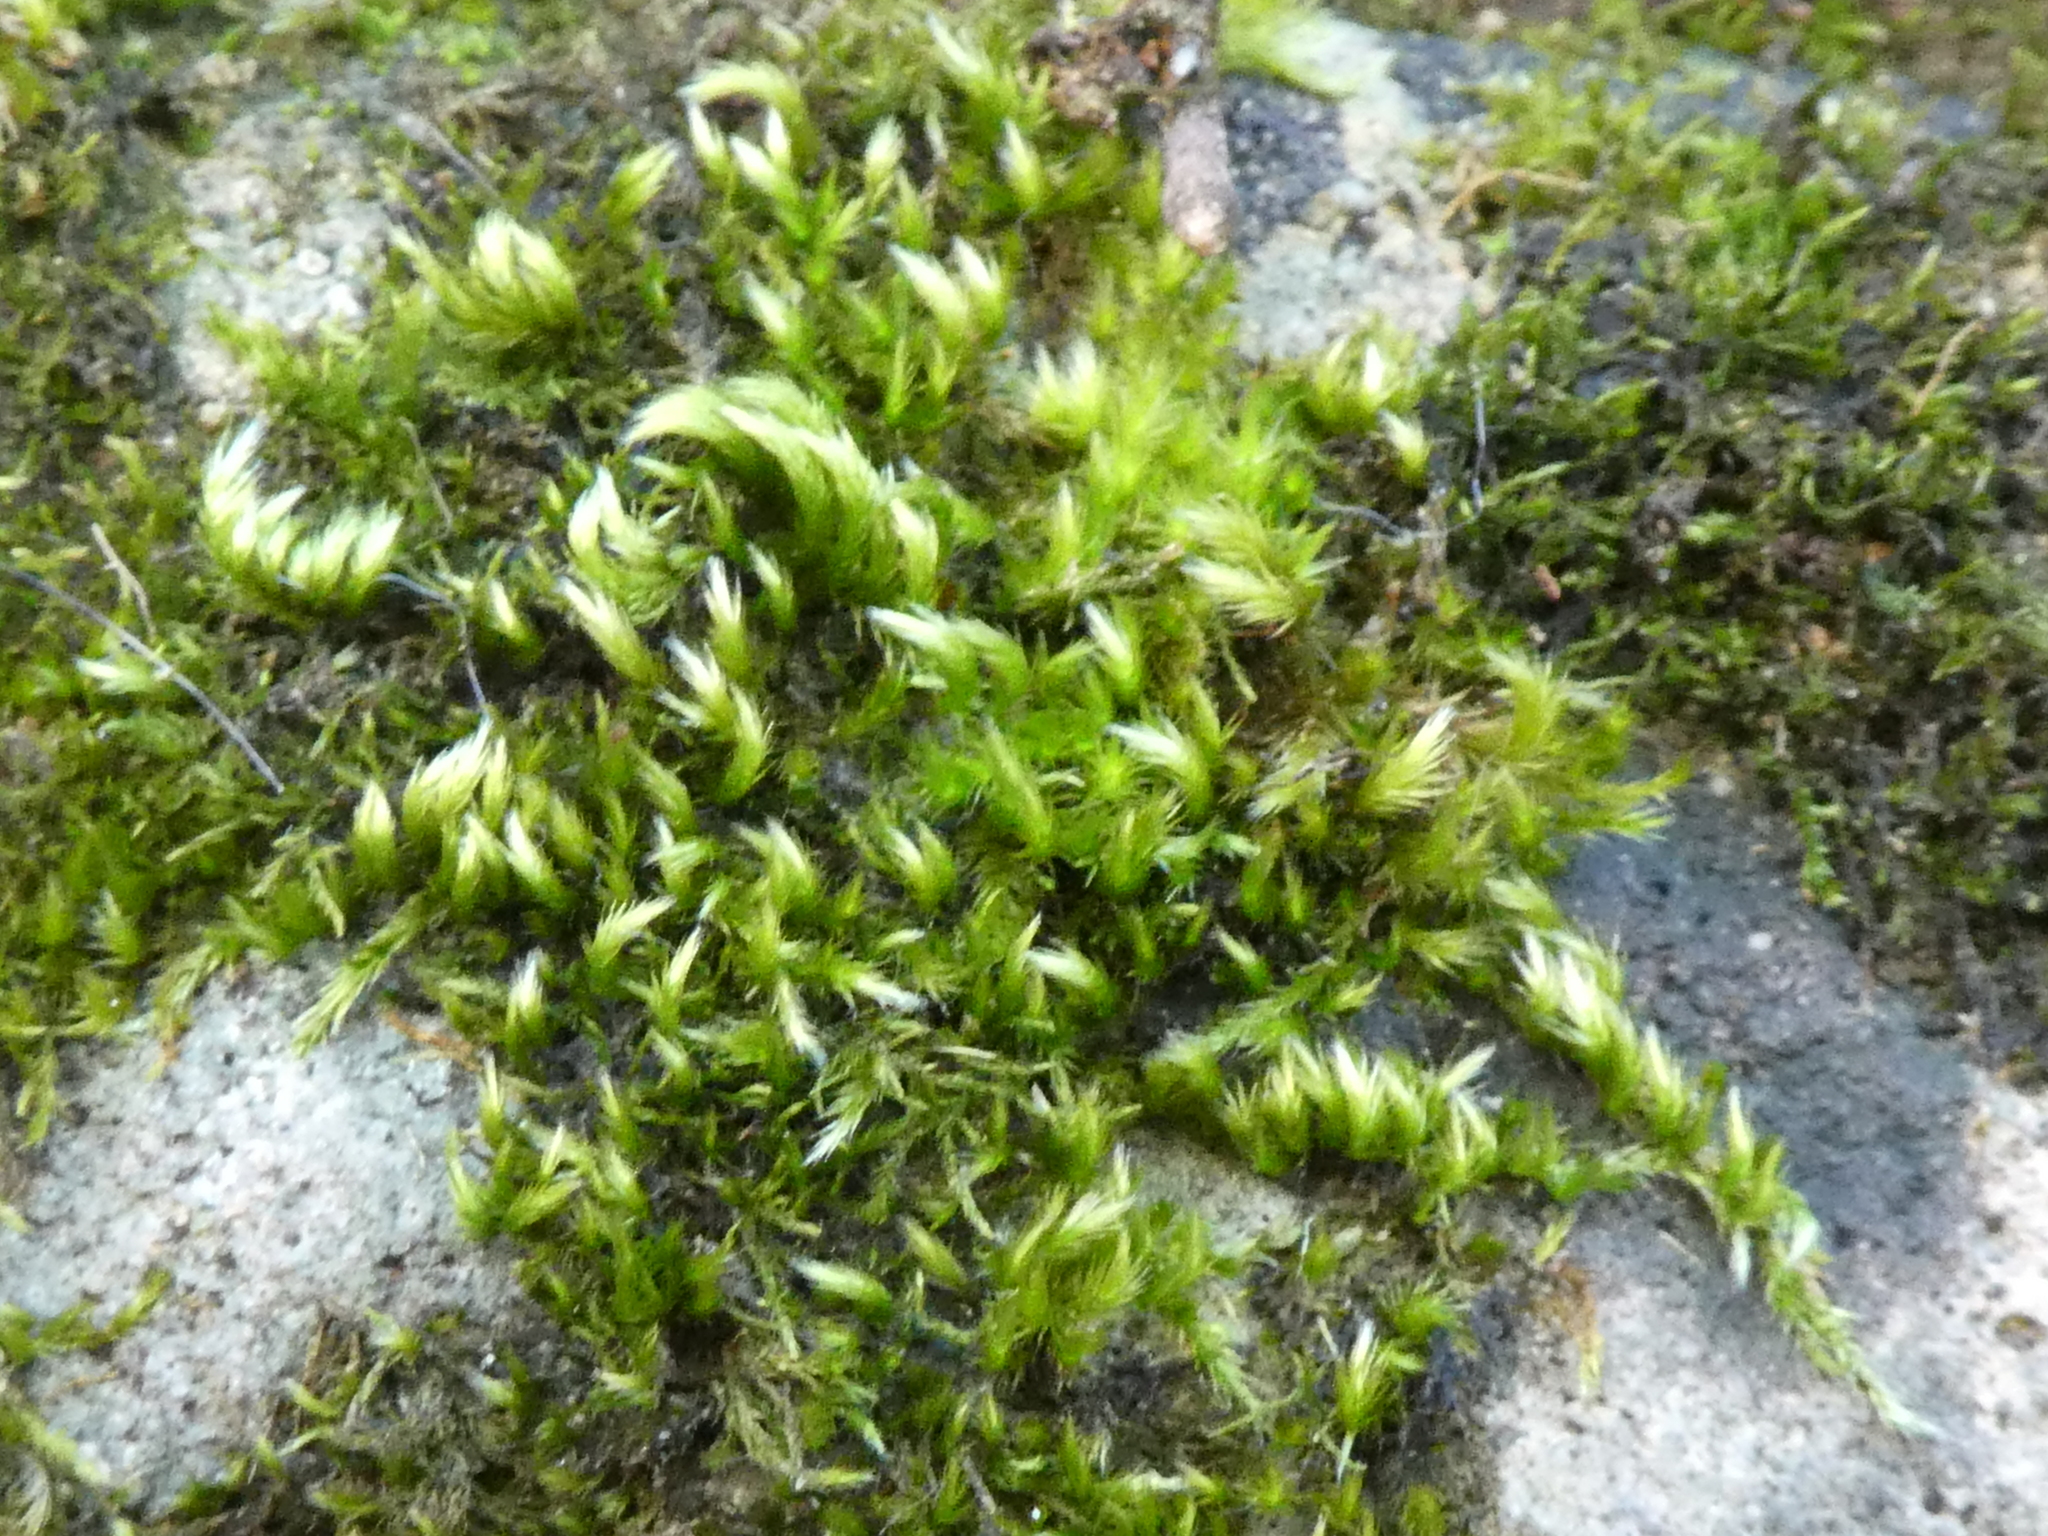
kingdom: Plantae
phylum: Bryophyta
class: Bryopsida
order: Hypnales
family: Brachytheciaceae
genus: Homalothecium
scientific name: Homalothecium sericeum
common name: Silky wall feather-moss
